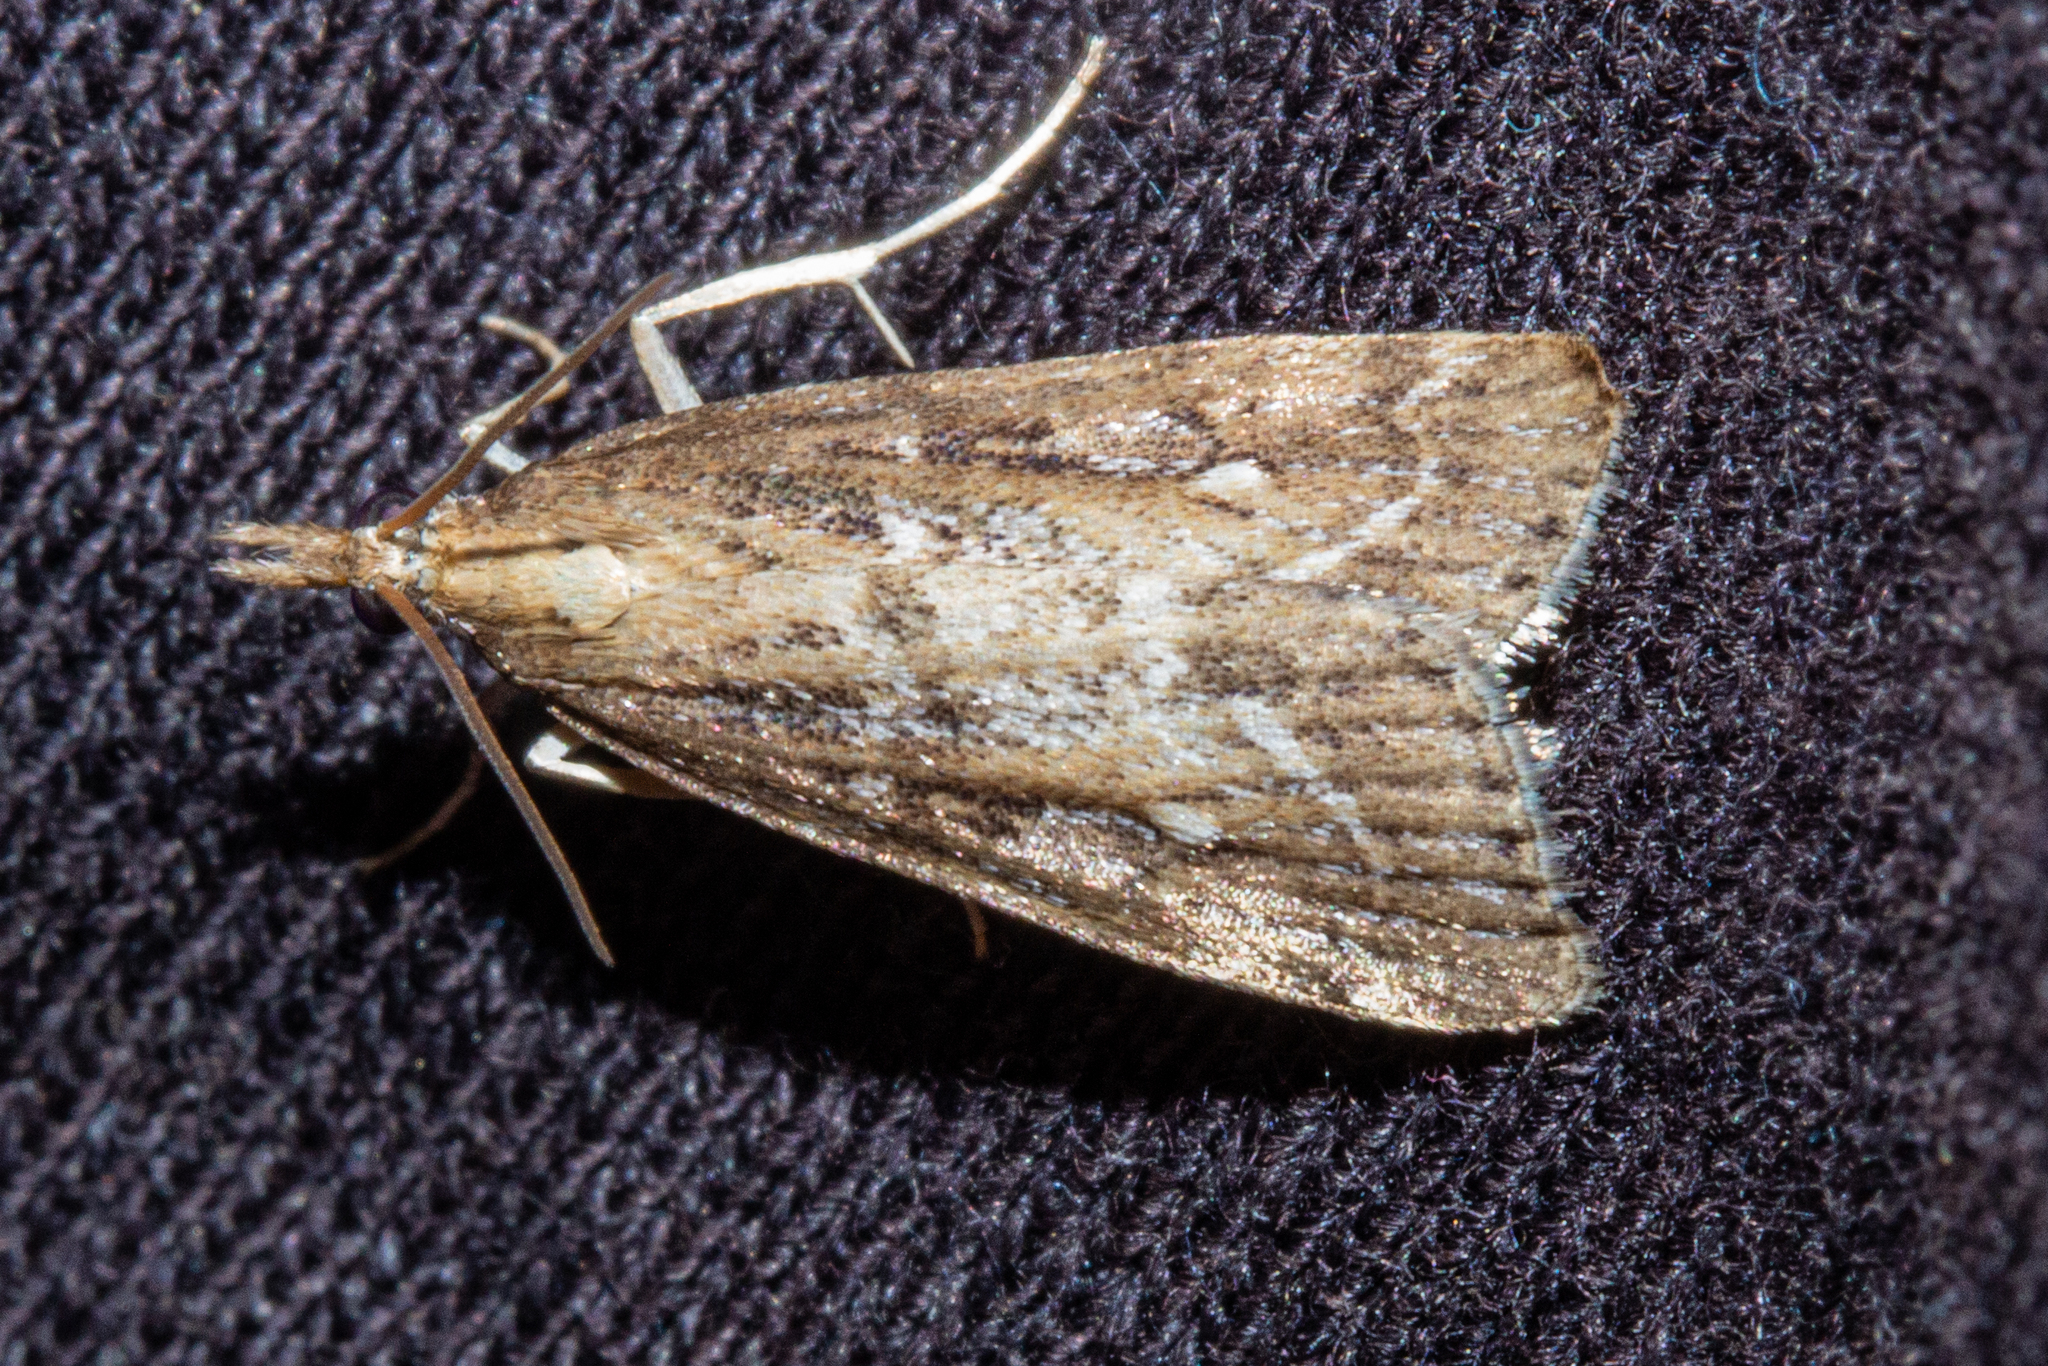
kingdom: Animalia
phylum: Arthropoda
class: Insecta
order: Lepidoptera
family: Crambidae
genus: Eudonia
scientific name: Eudonia octophora
